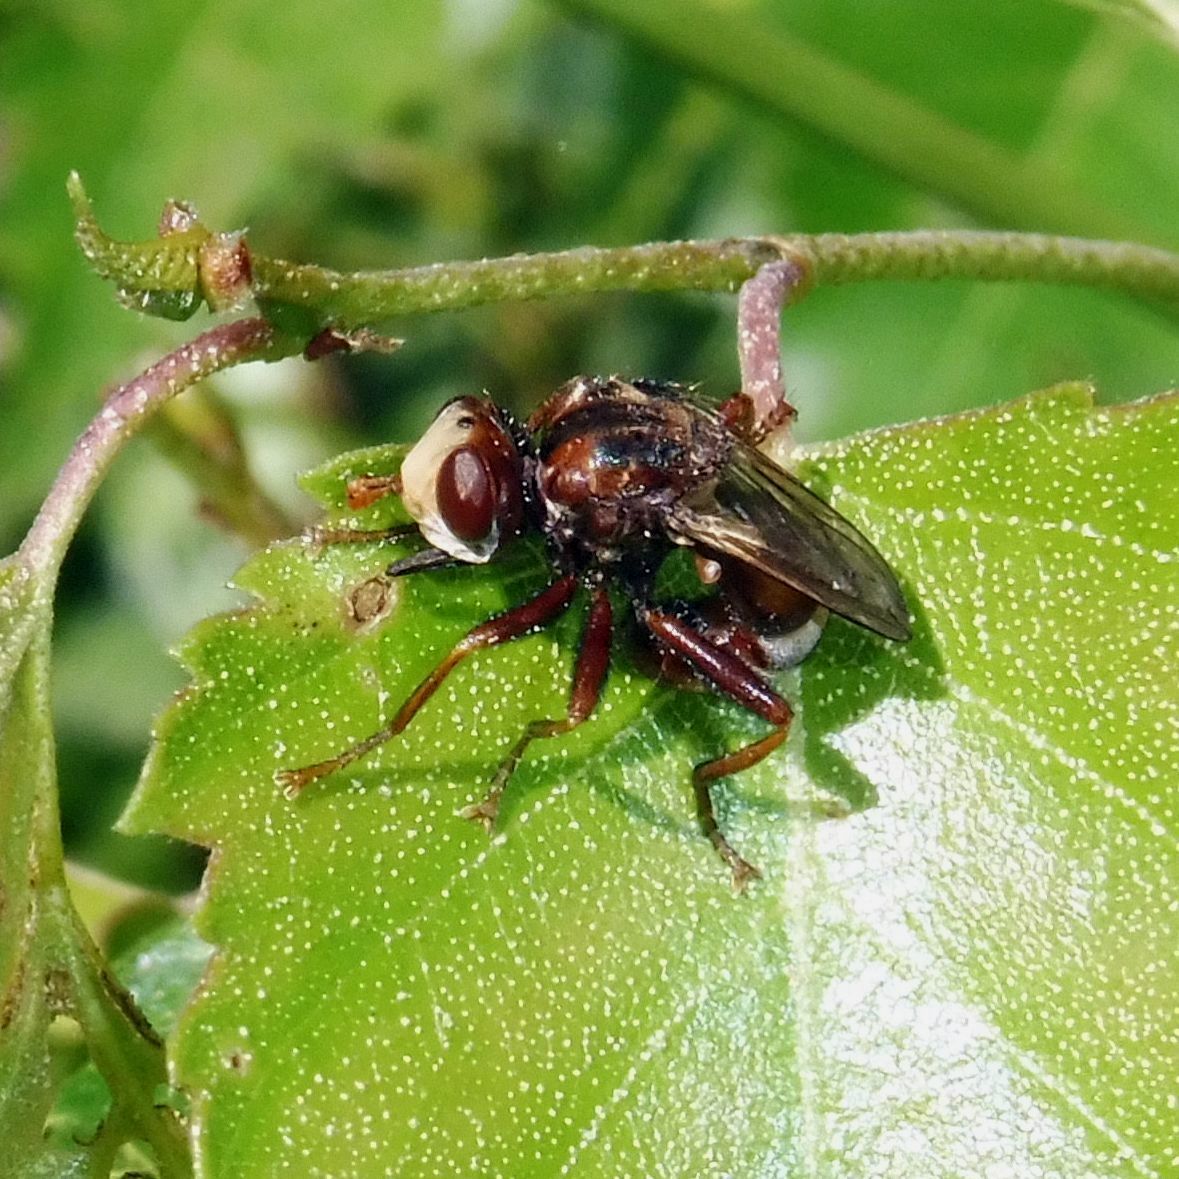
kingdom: Animalia
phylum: Arthropoda
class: Insecta
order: Diptera
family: Conopidae
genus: Sicus
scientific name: Sicus ferrugineus
